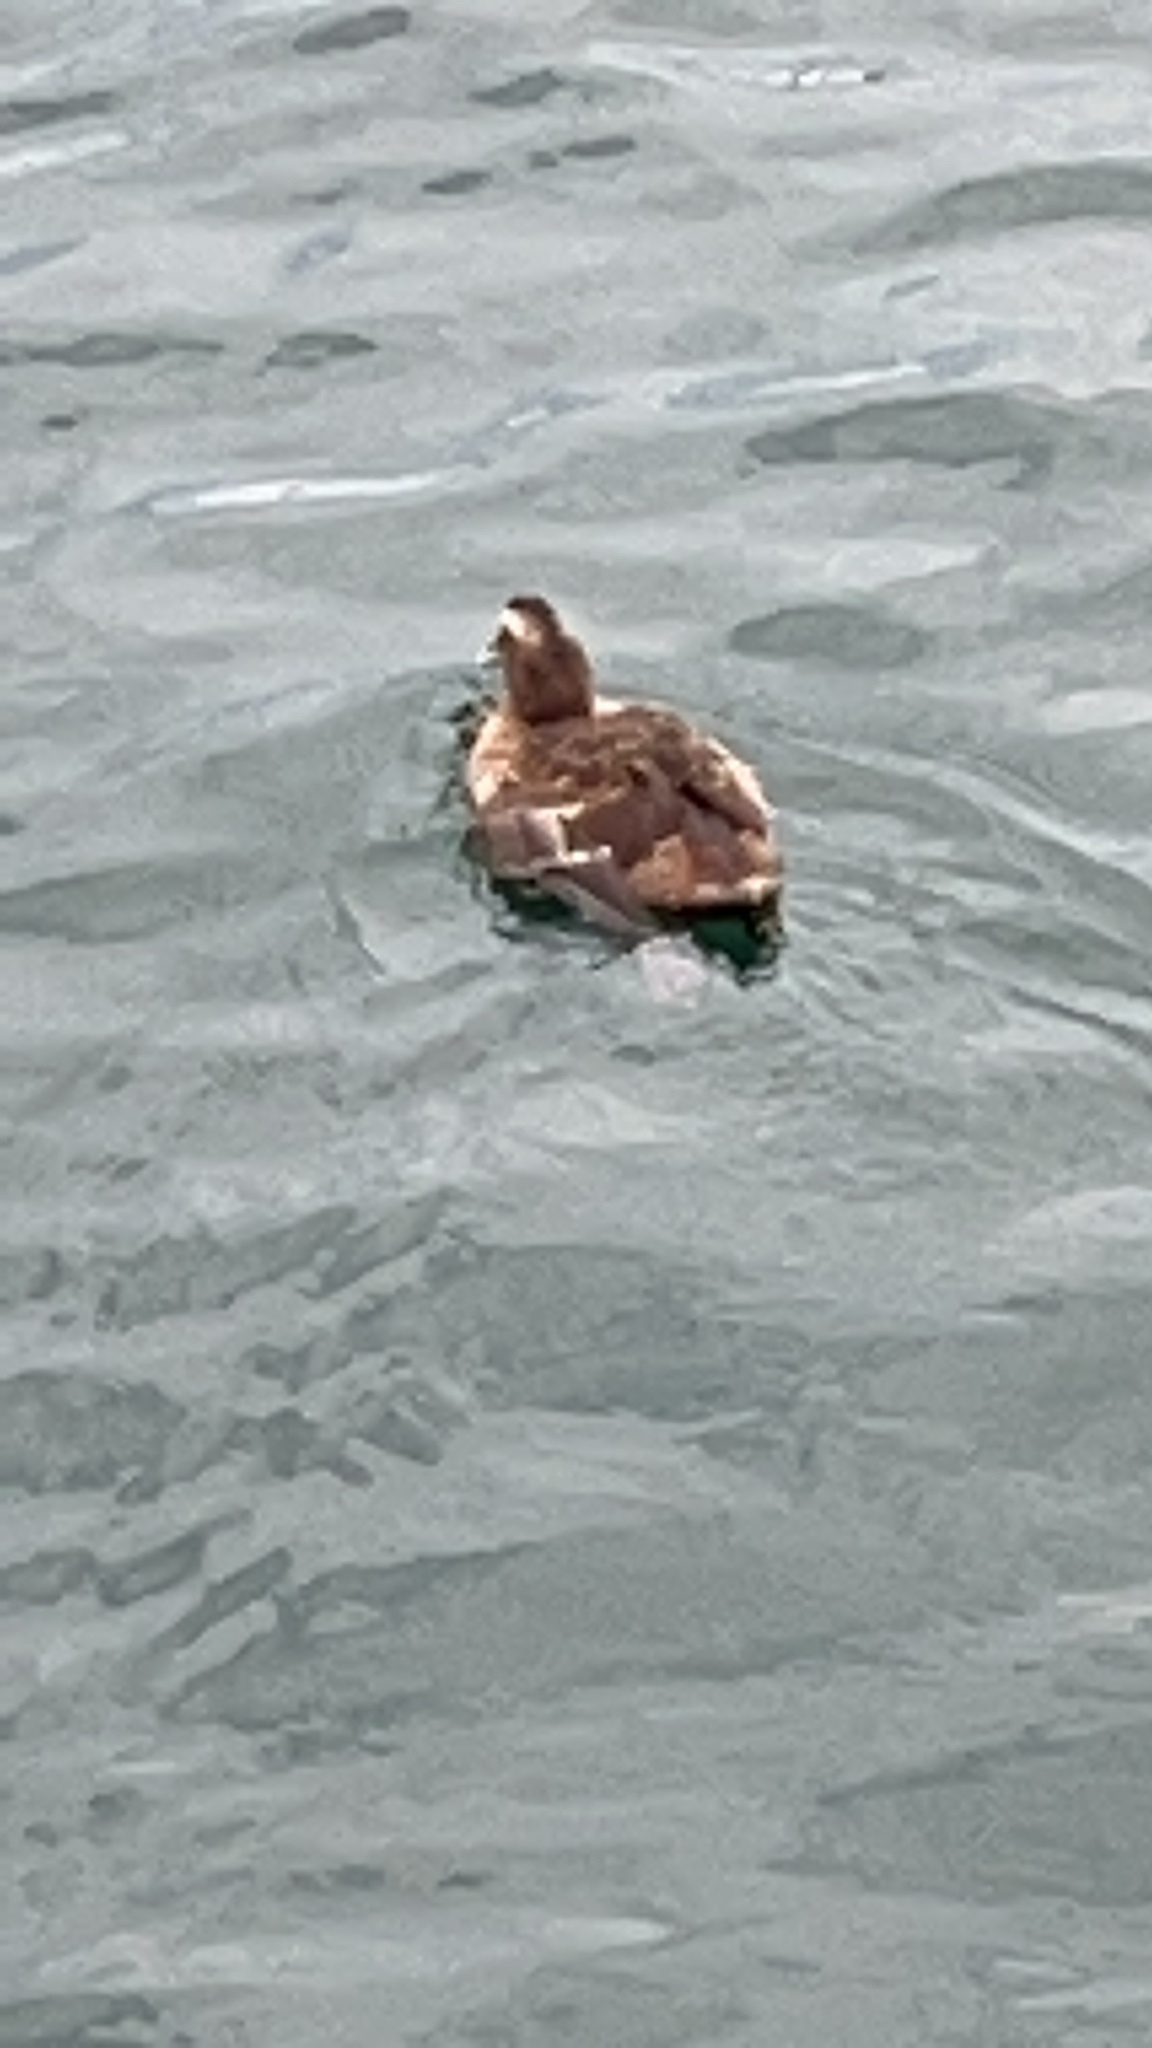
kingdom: Animalia
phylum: Chordata
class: Aves
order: Anseriformes
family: Anatidae
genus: Somateria
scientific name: Somateria mollissima
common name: Common eider
